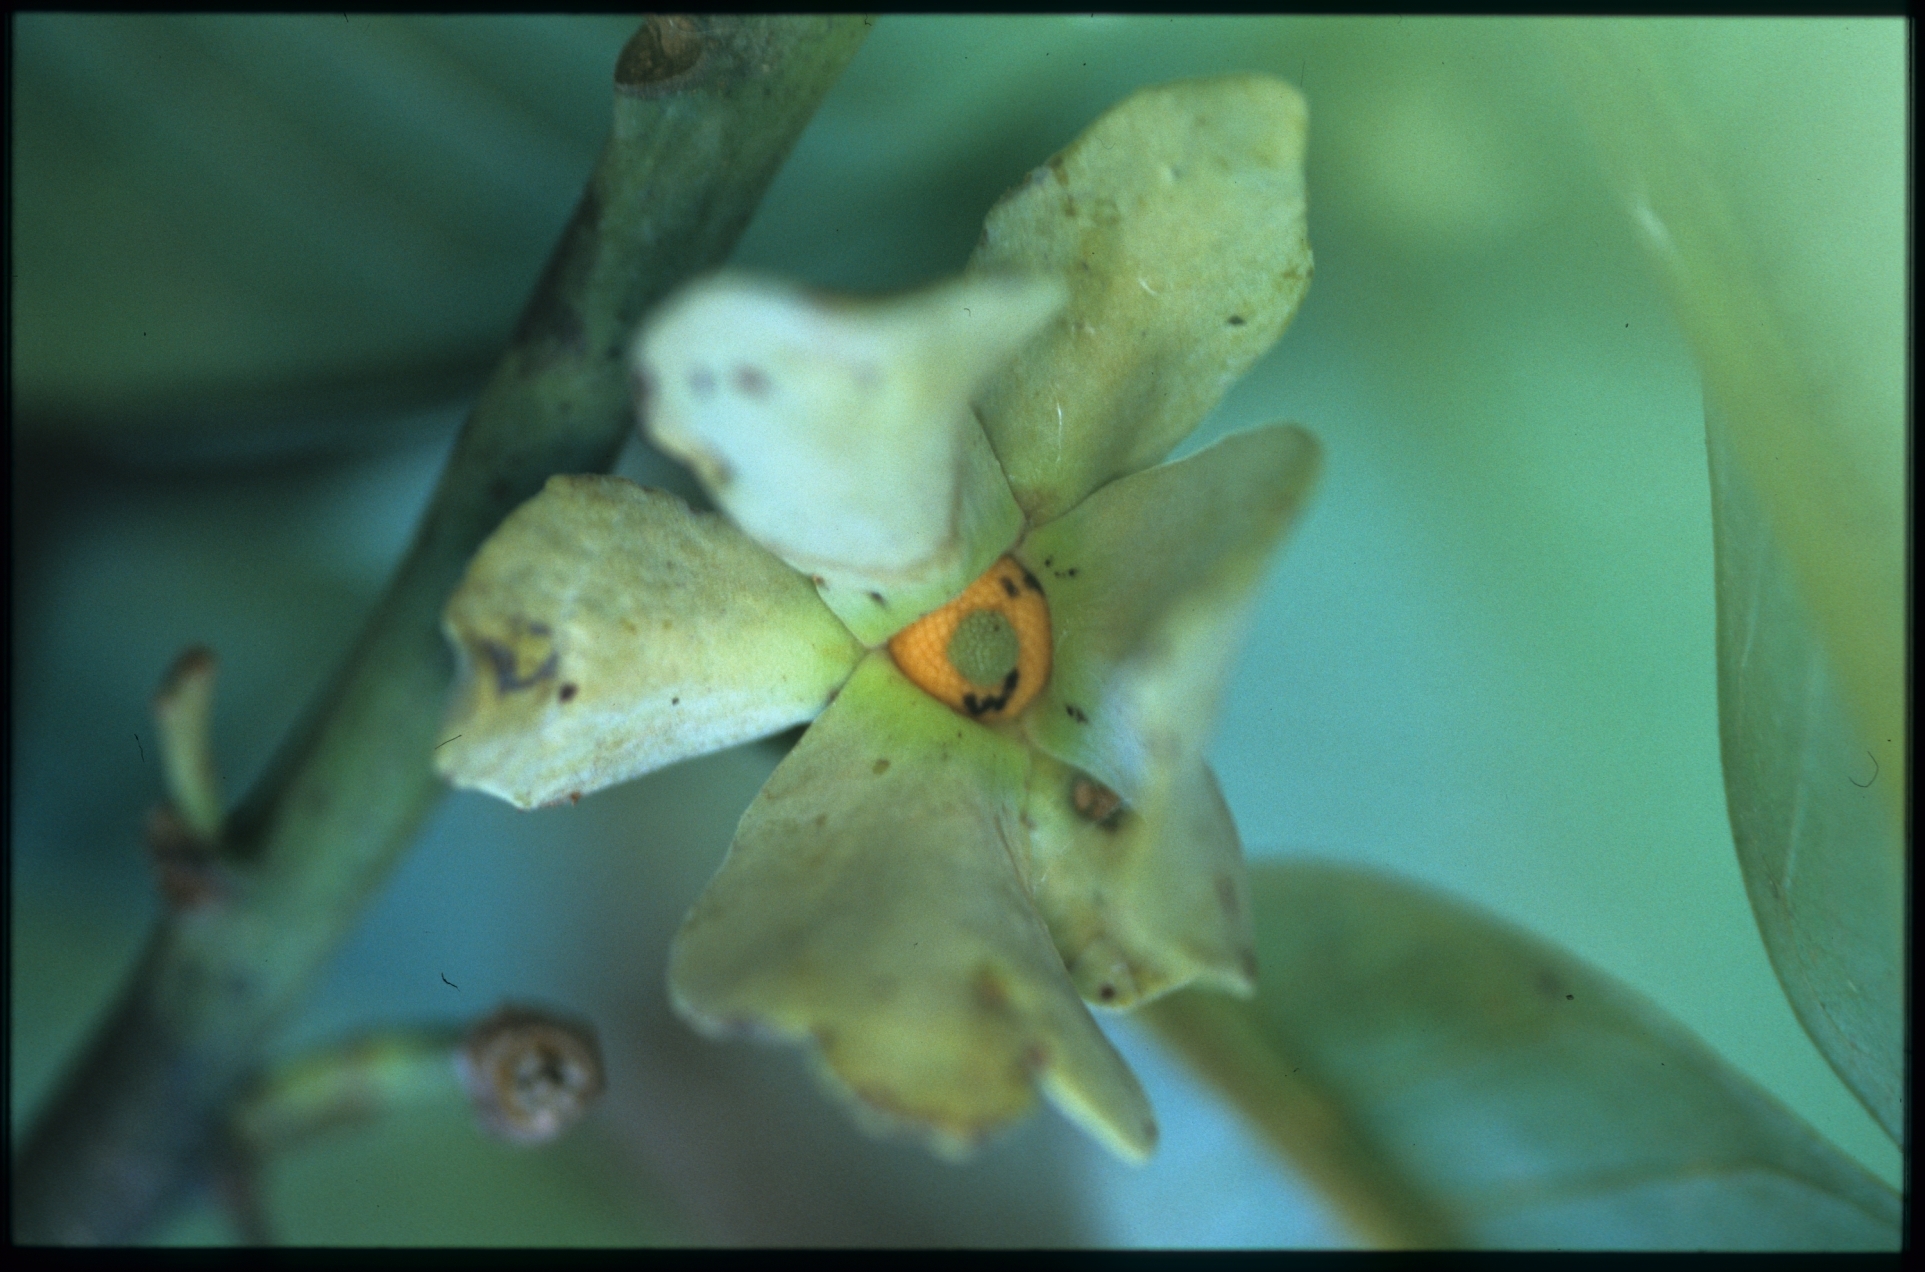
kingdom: Plantae
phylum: Tracheophyta
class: Magnoliopsida
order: Magnoliales
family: Annonaceae
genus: Guatteria
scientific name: Guatteria ramiflora
